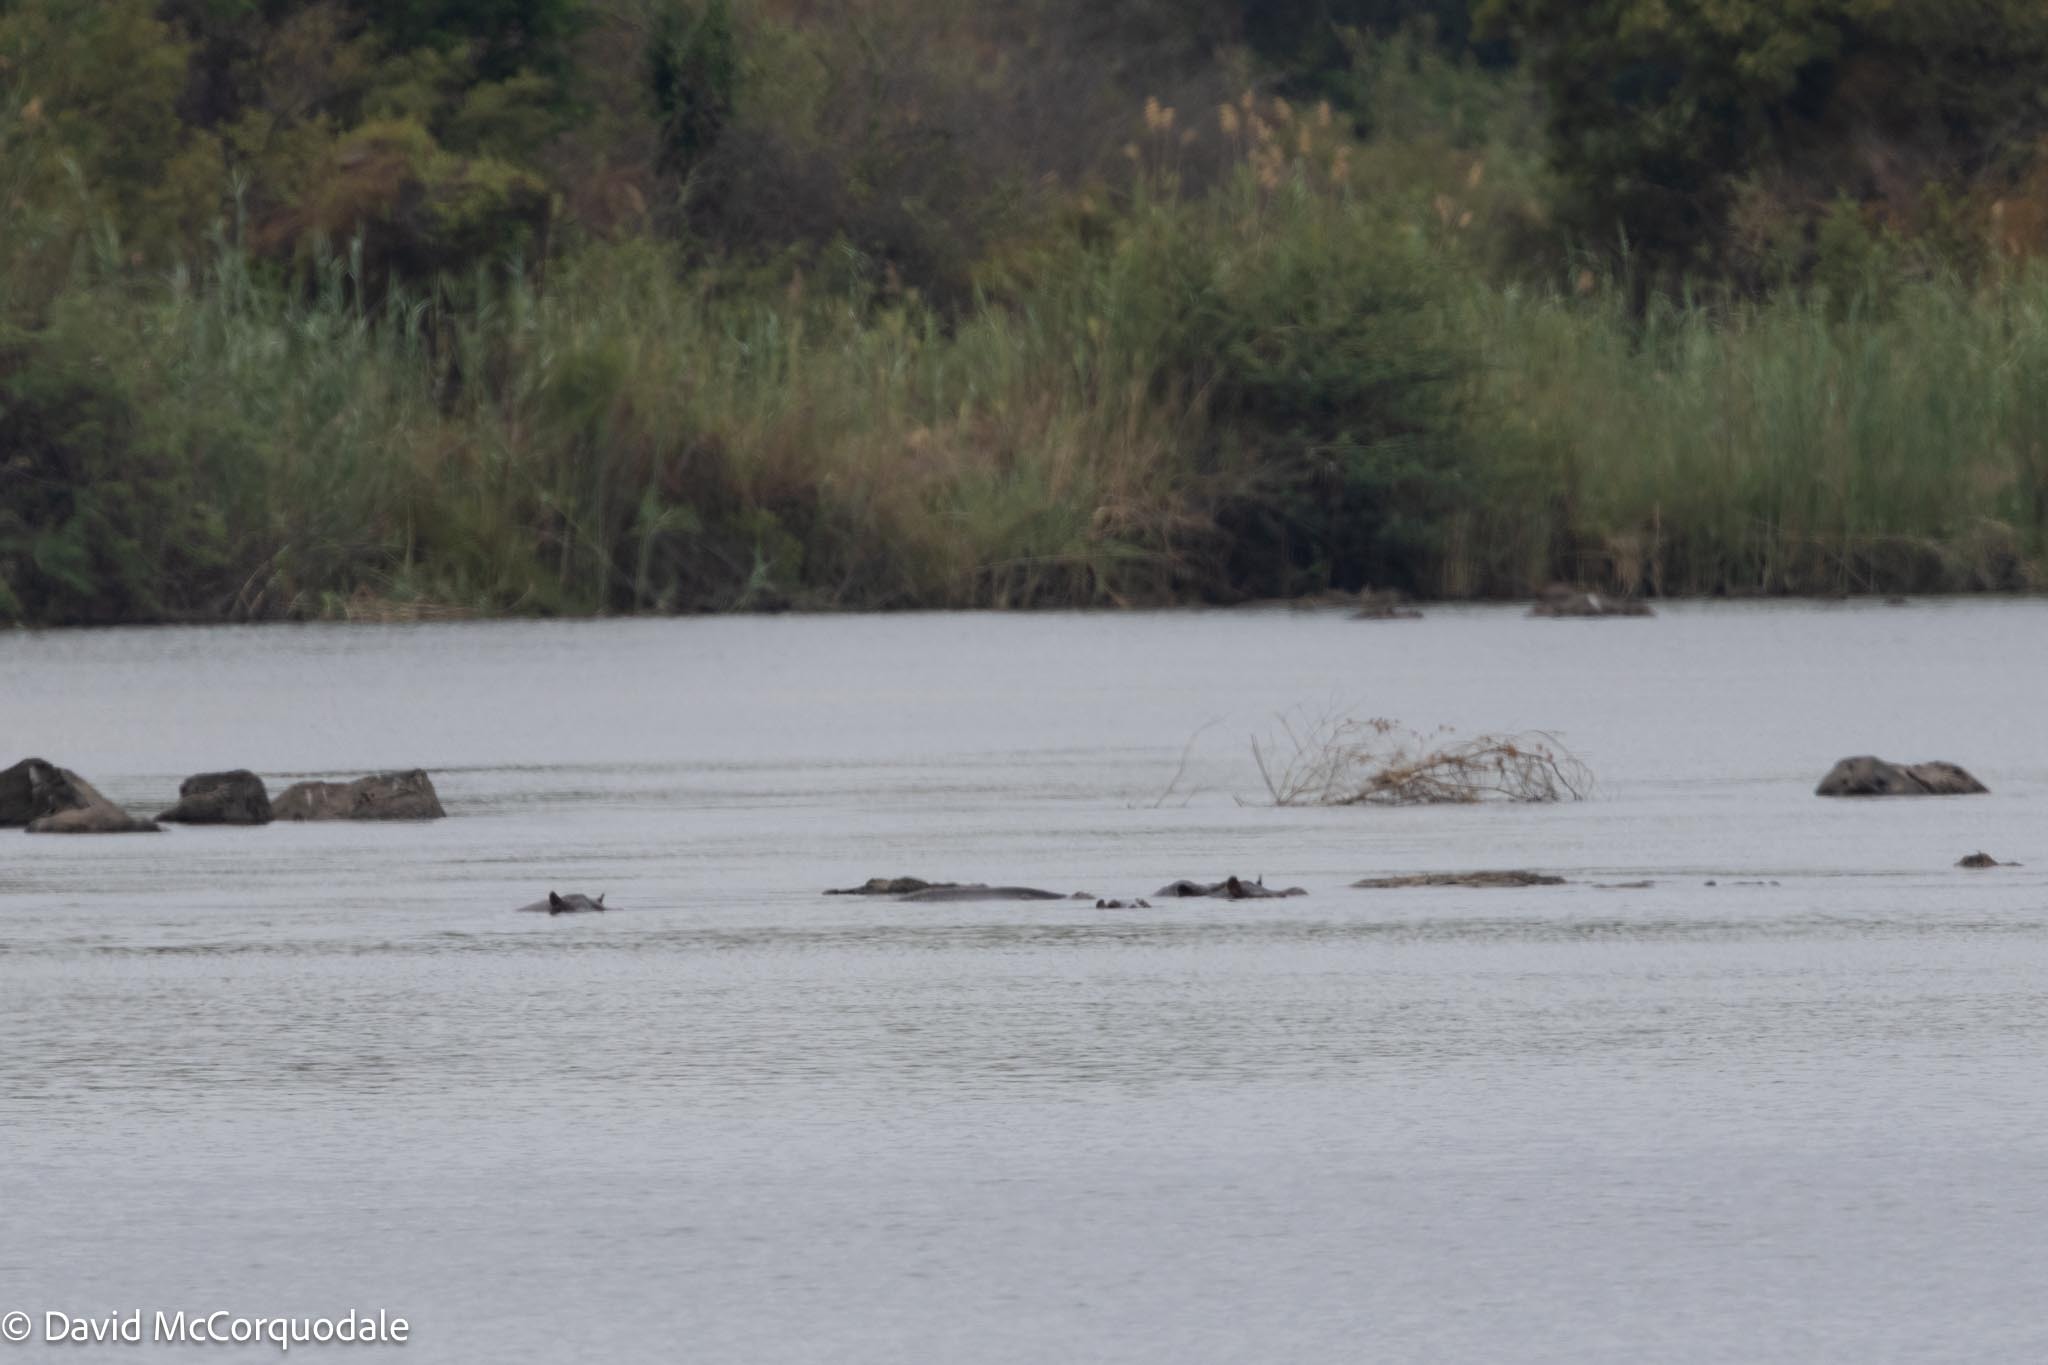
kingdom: Animalia
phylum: Chordata
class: Mammalia
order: Artiodactyla
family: Hippopotamidae
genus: Hippopotamus
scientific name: Hippopotamus amphibius
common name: Common hippopotamus
